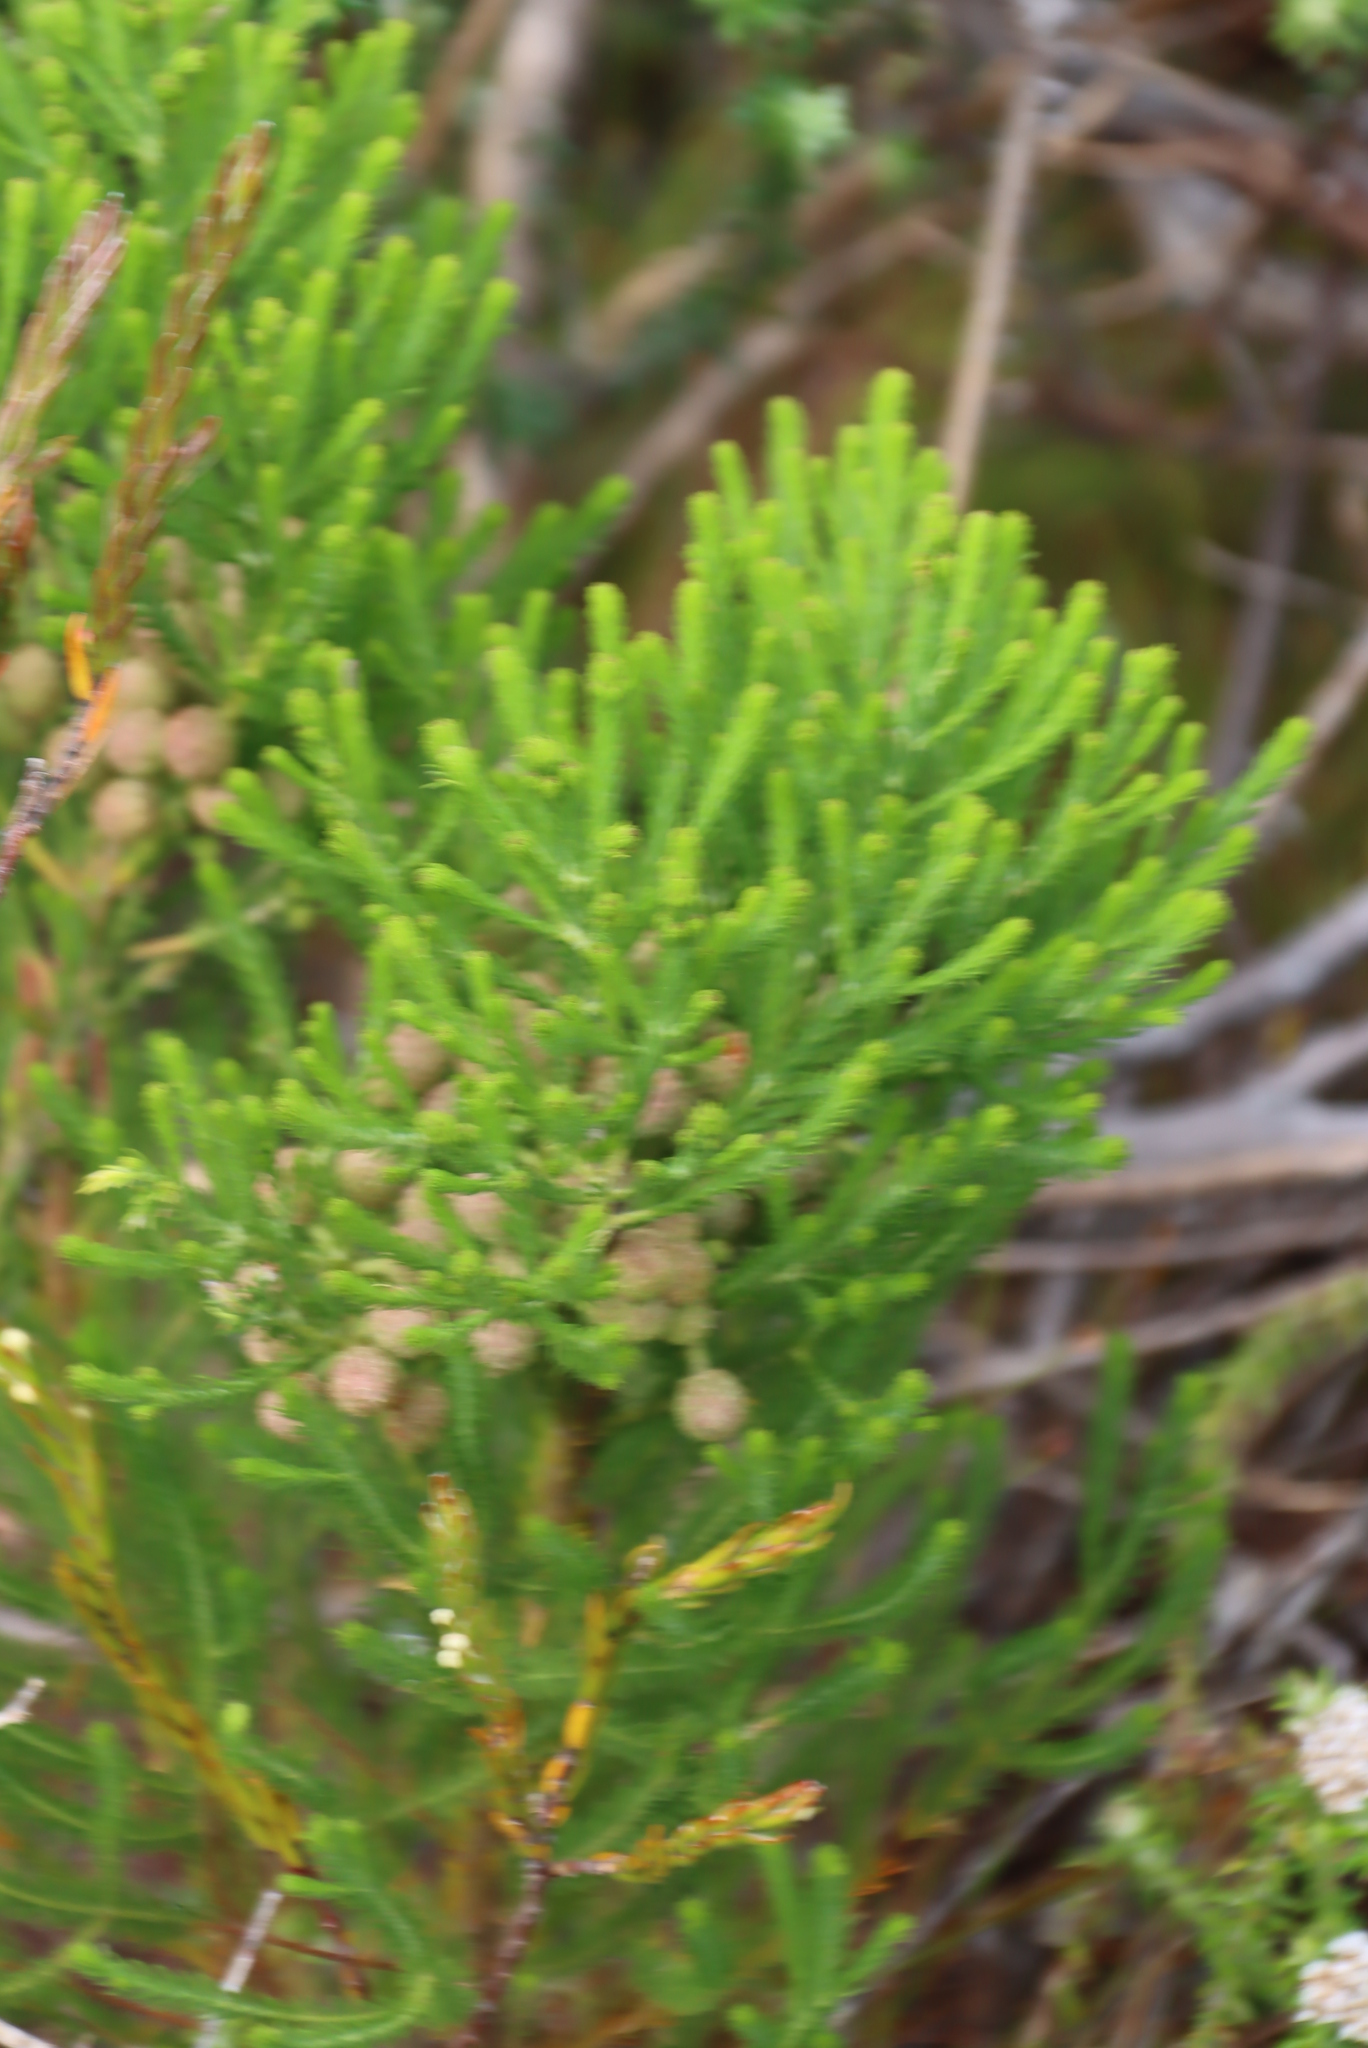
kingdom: Plantae
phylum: Tracheophyta
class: Magnoliopsida
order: Bruniales
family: Bruniaceae
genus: Berzelia
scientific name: Berzelia lanuginosa
